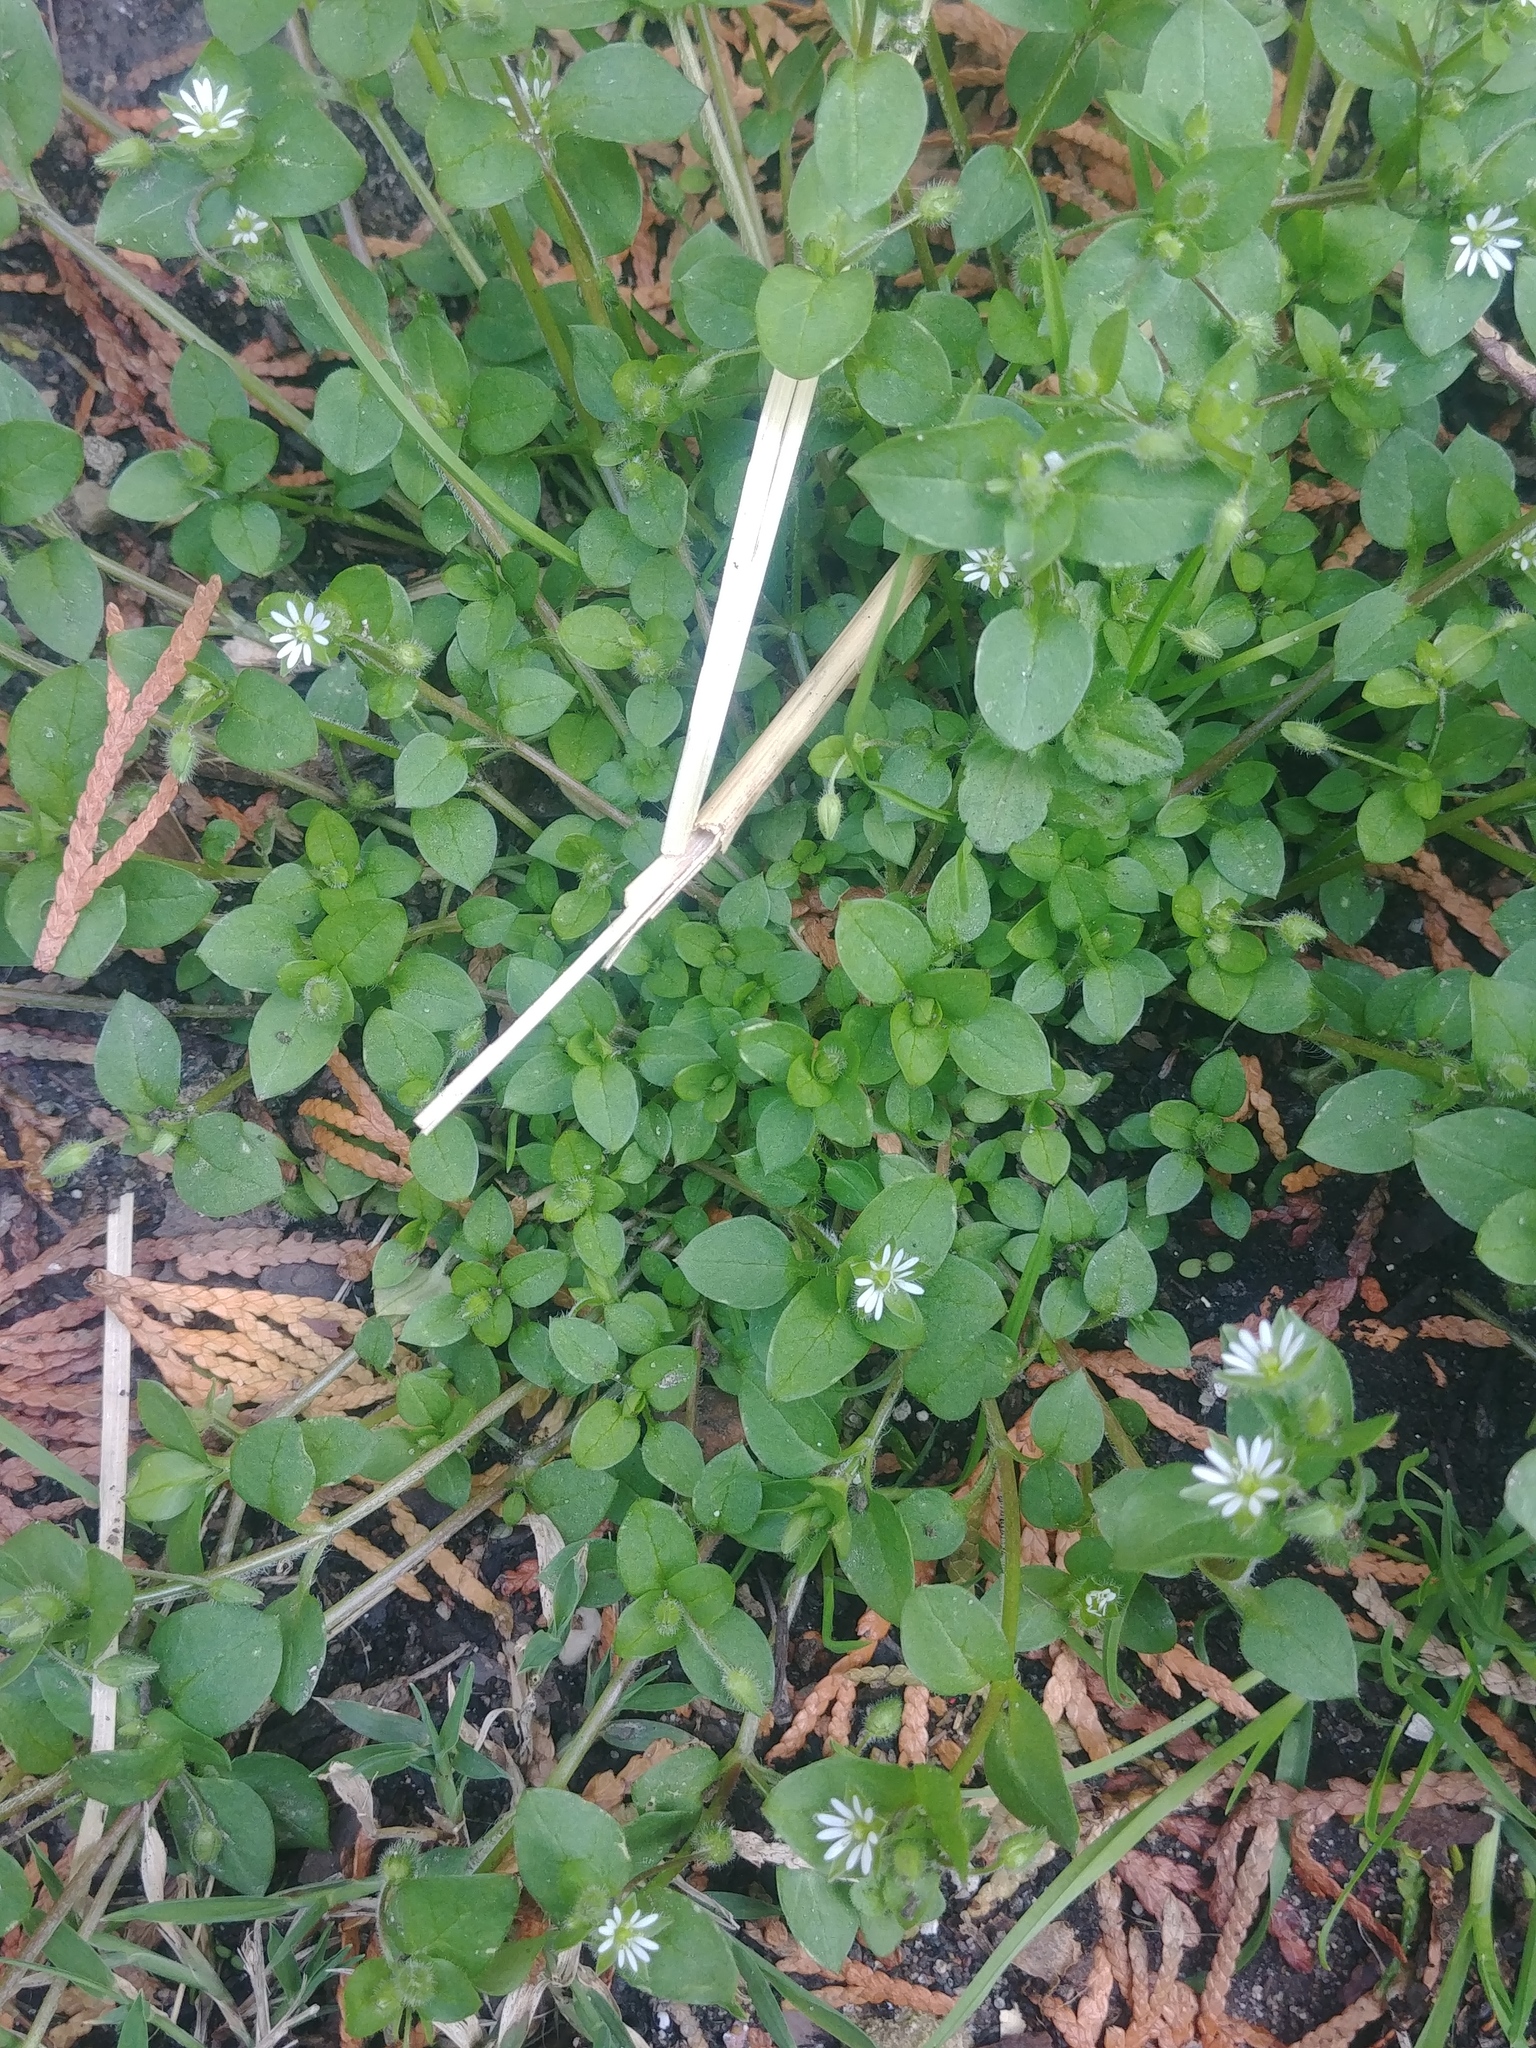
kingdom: Plantae
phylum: Tracheophyta
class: Magnoliopsida
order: Caryophyllales
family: Caryophyllaceae
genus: Stellaria
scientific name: Stellaria media
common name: Common chickweed
